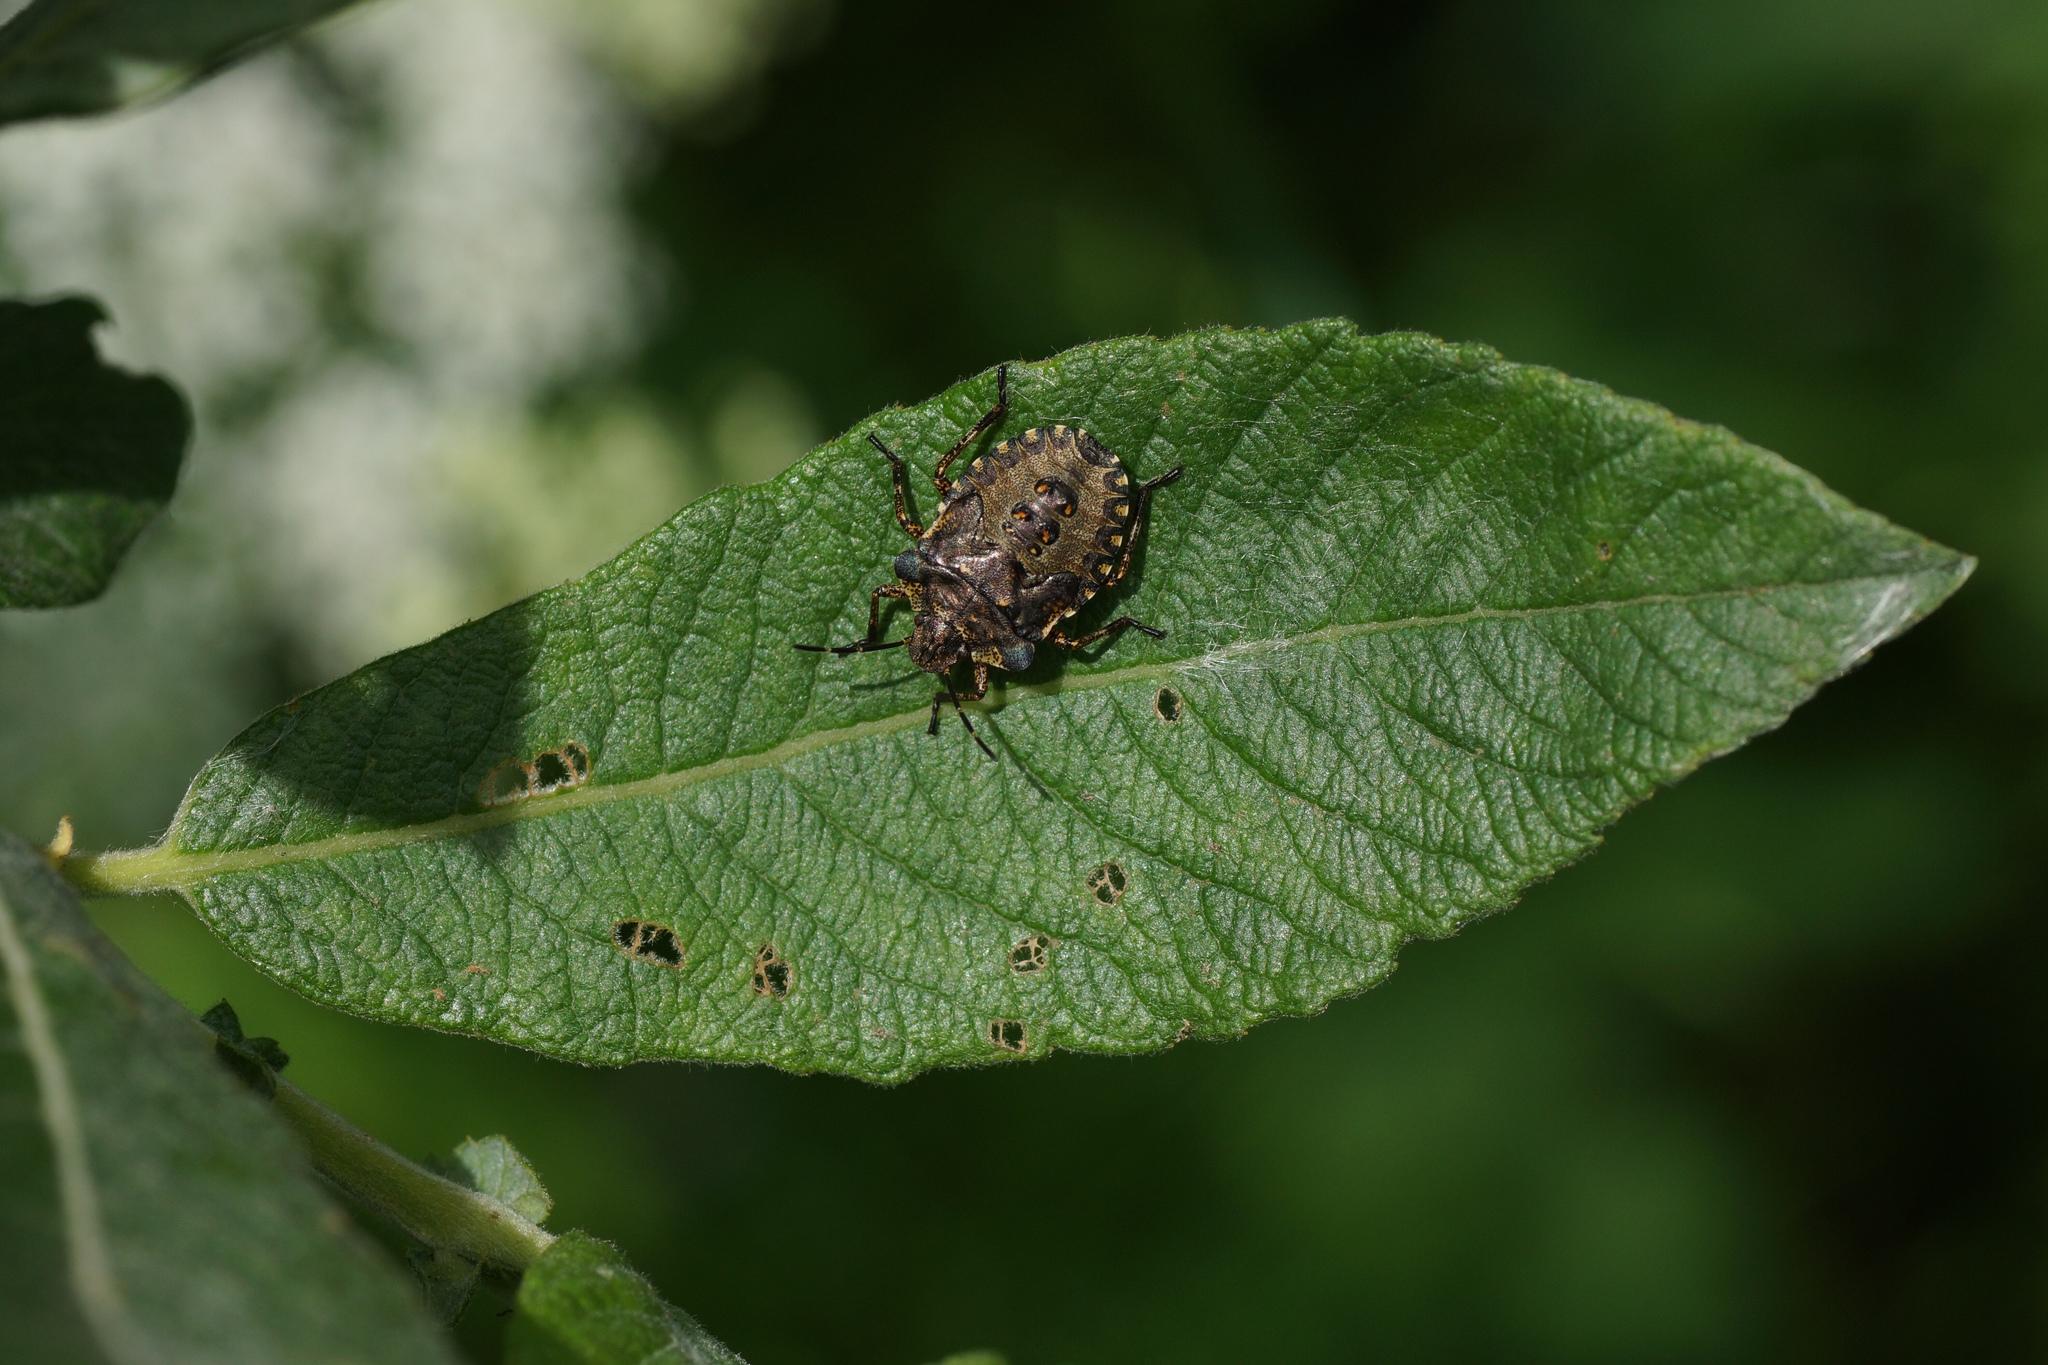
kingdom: Animalia
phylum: Arthropoda
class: Insecta
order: Hemiptera
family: Pentatomidae
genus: Pentatoma
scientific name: Pentatoma rufipes
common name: Forest bug
